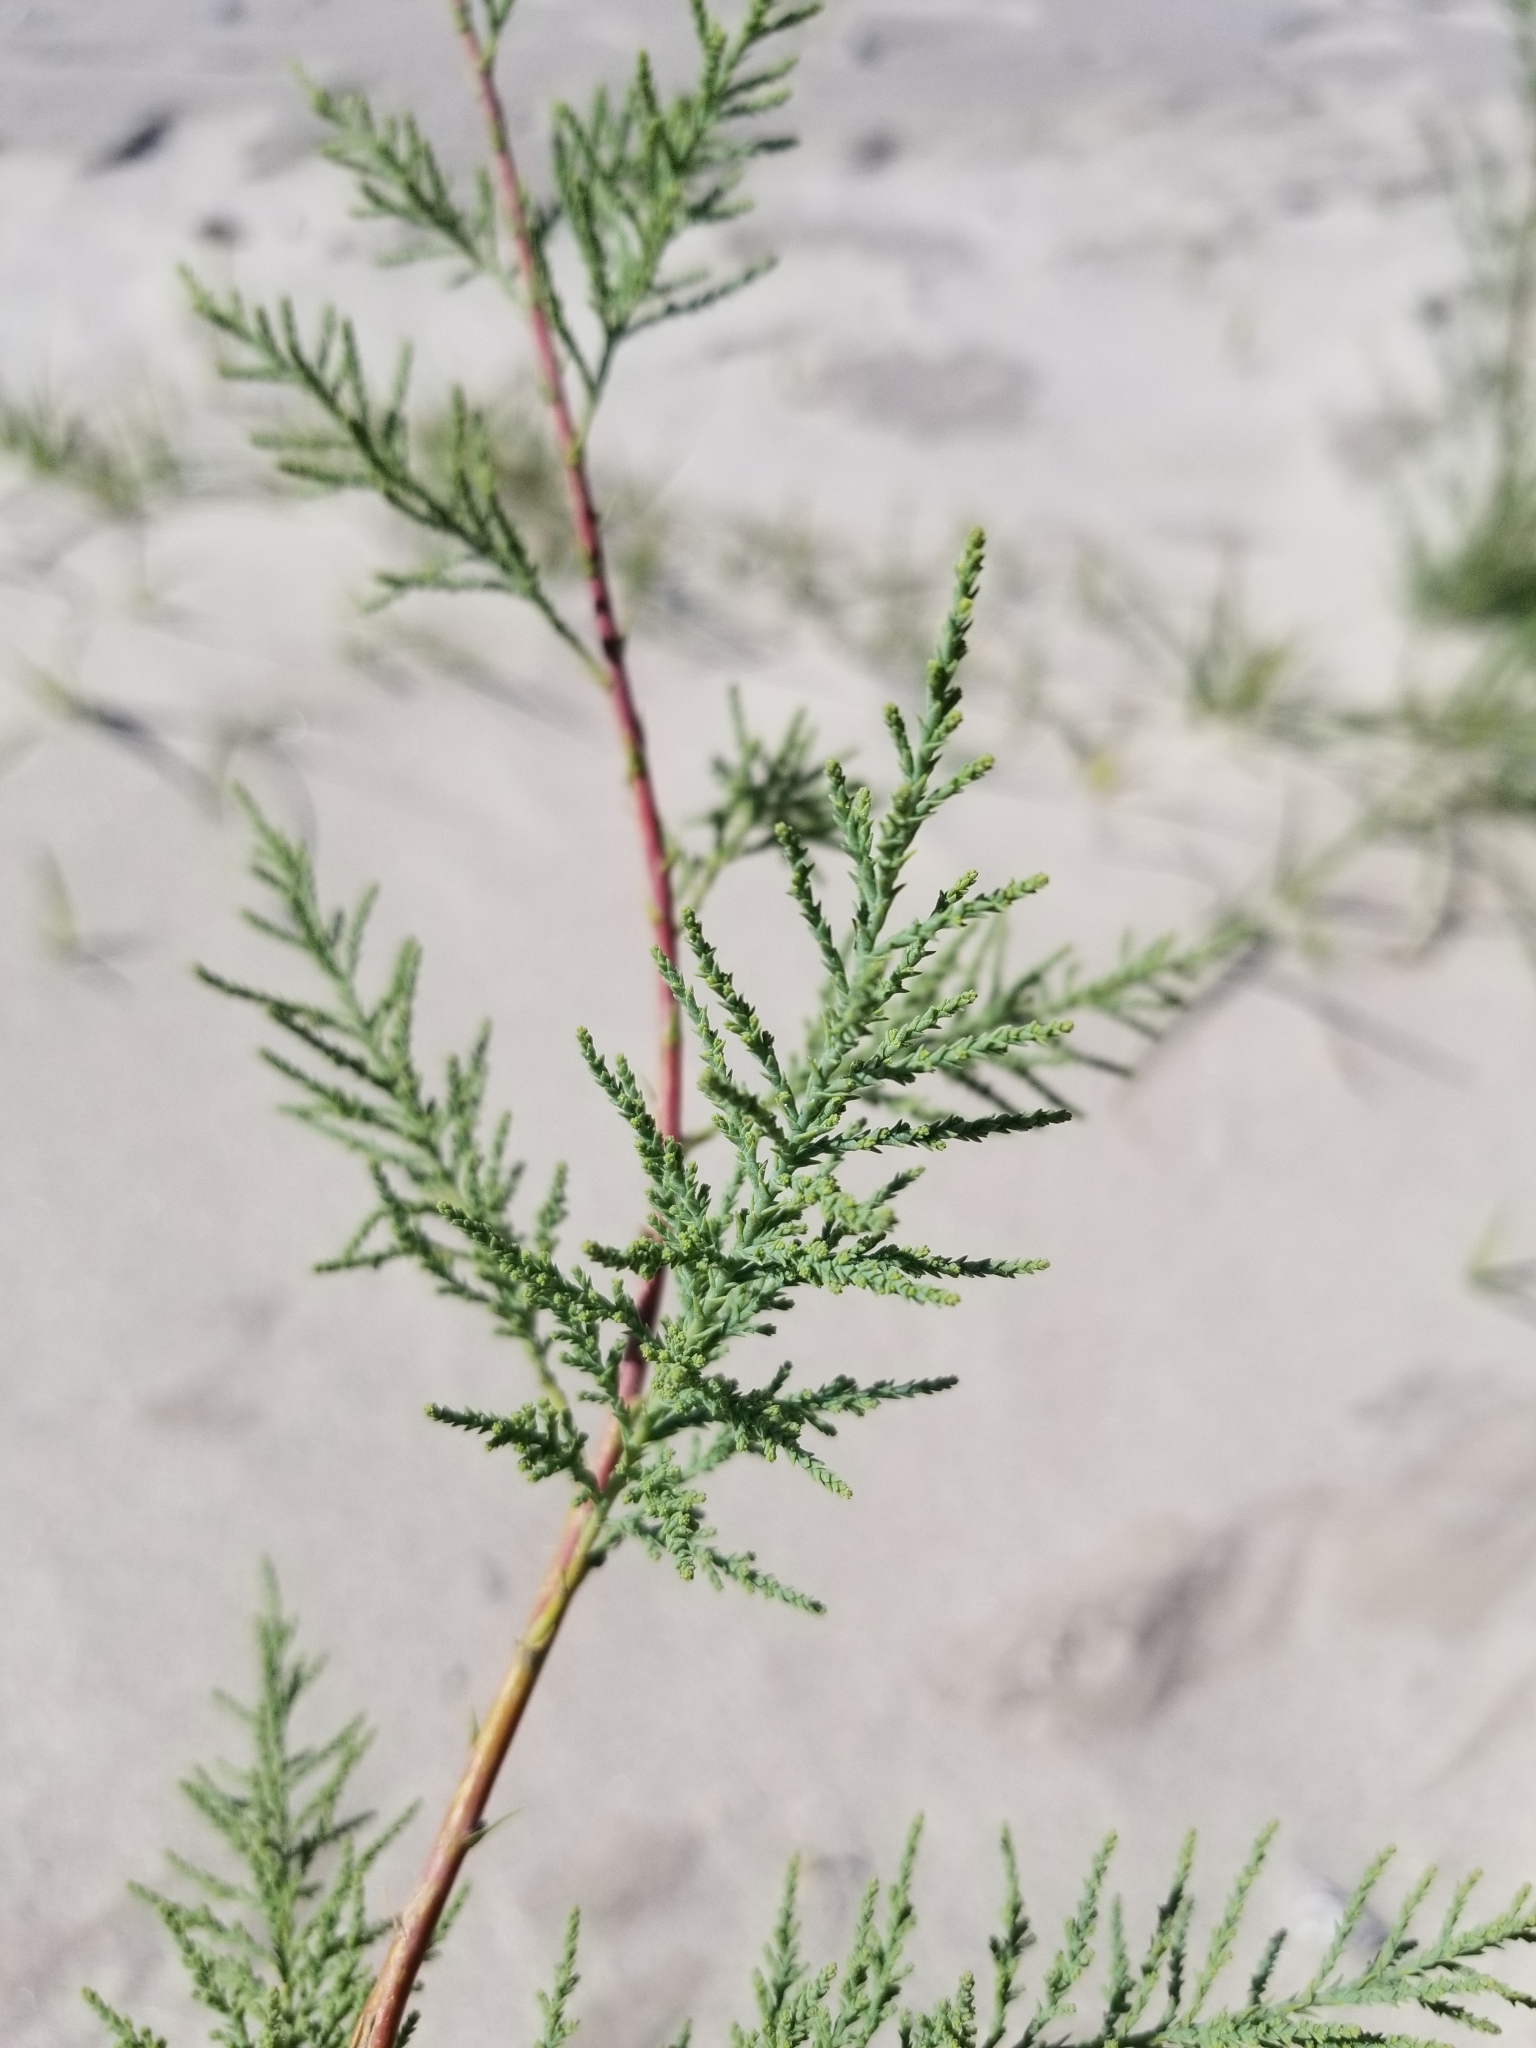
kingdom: Plantae
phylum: Tracheophyta
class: Magnoliopsida
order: Caryophyllales
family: Tamaricaceae
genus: Tamarix
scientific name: Tamarix ramosissima
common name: Pink tamarisk
